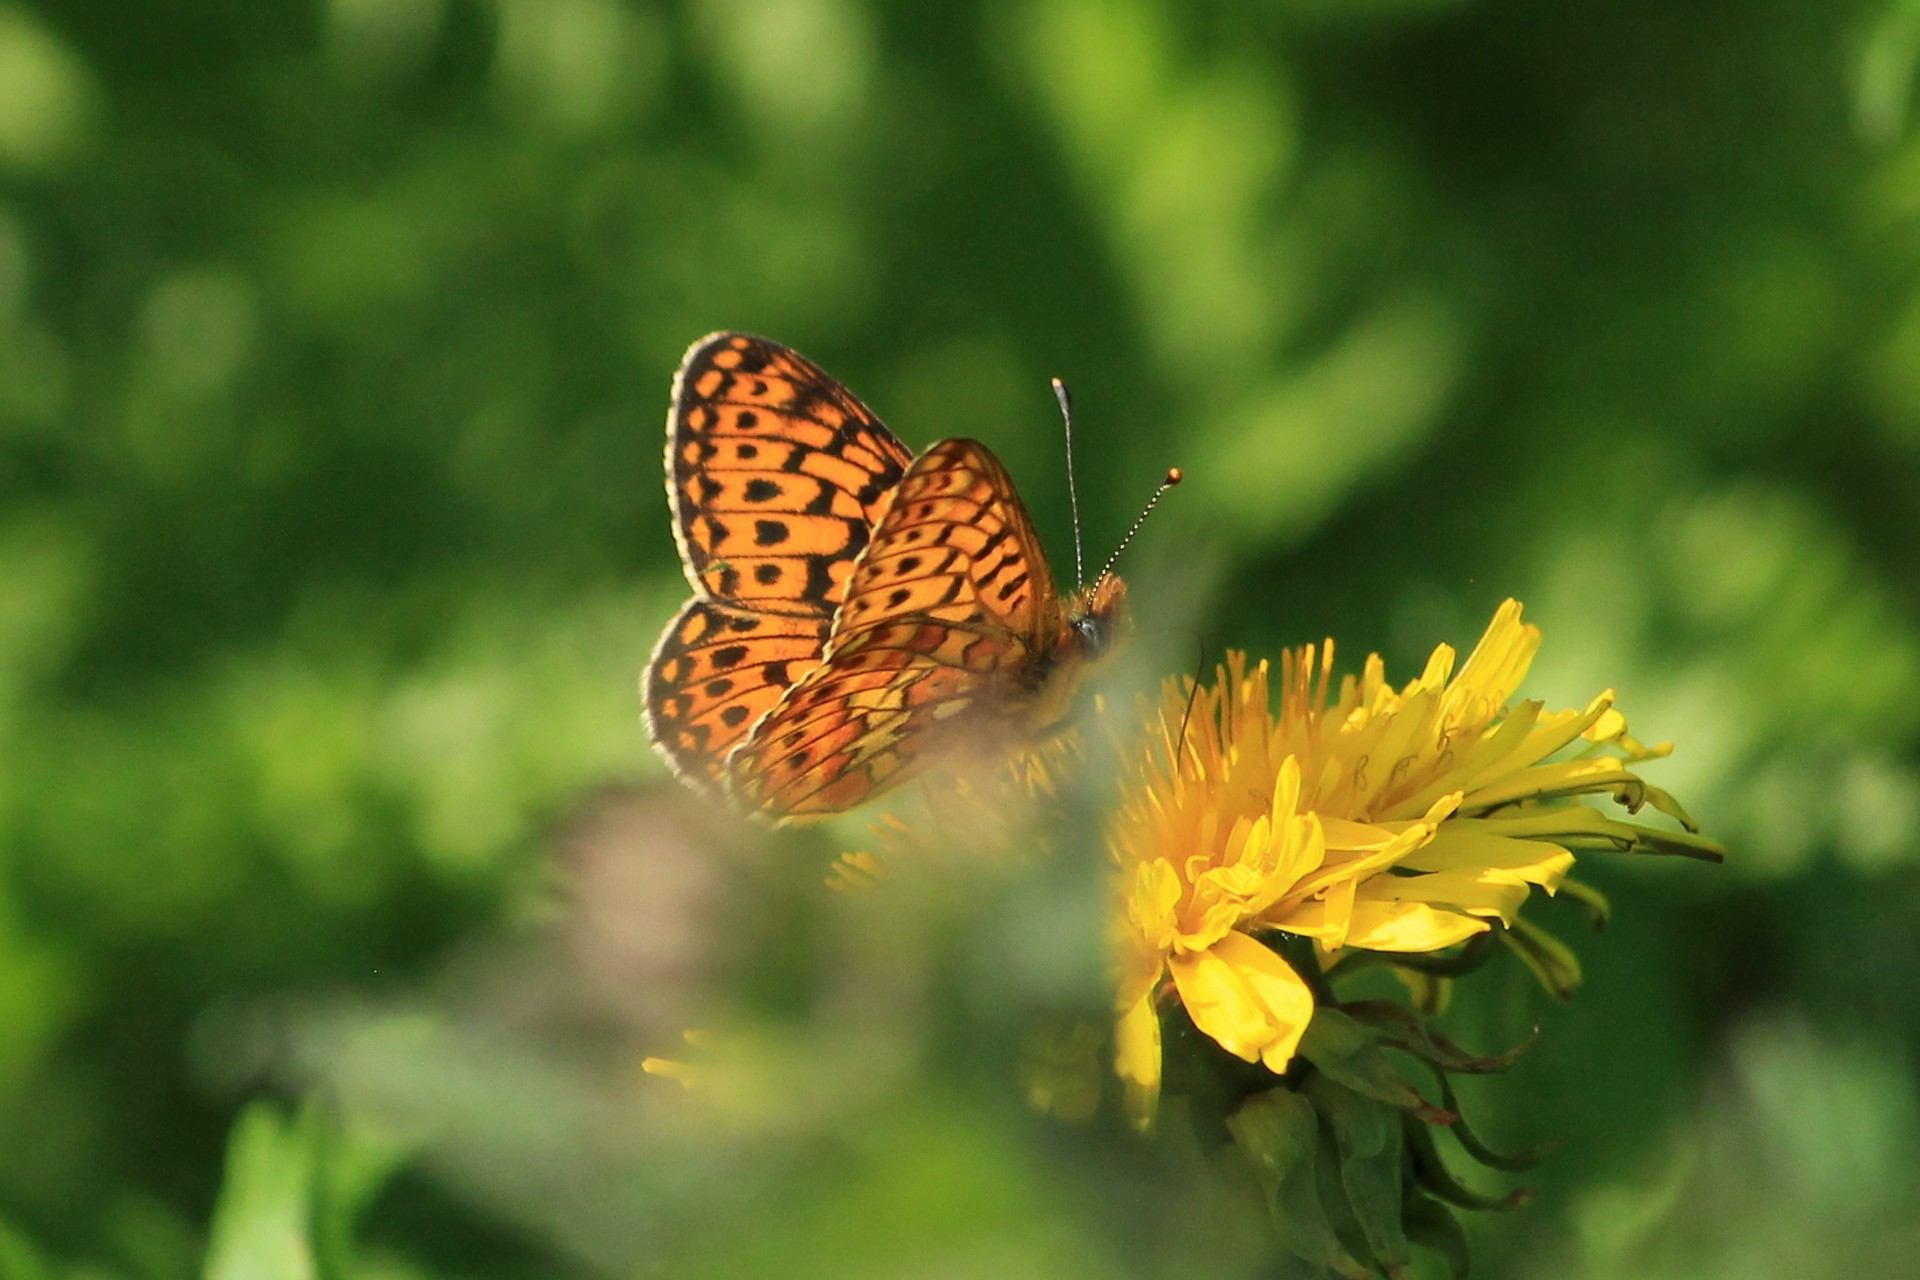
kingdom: Animalia
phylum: Arthropoda
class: Insecta
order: Lepidoptera
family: Nymphalidae
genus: Clossiana
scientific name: Clossiana euphrosyne
